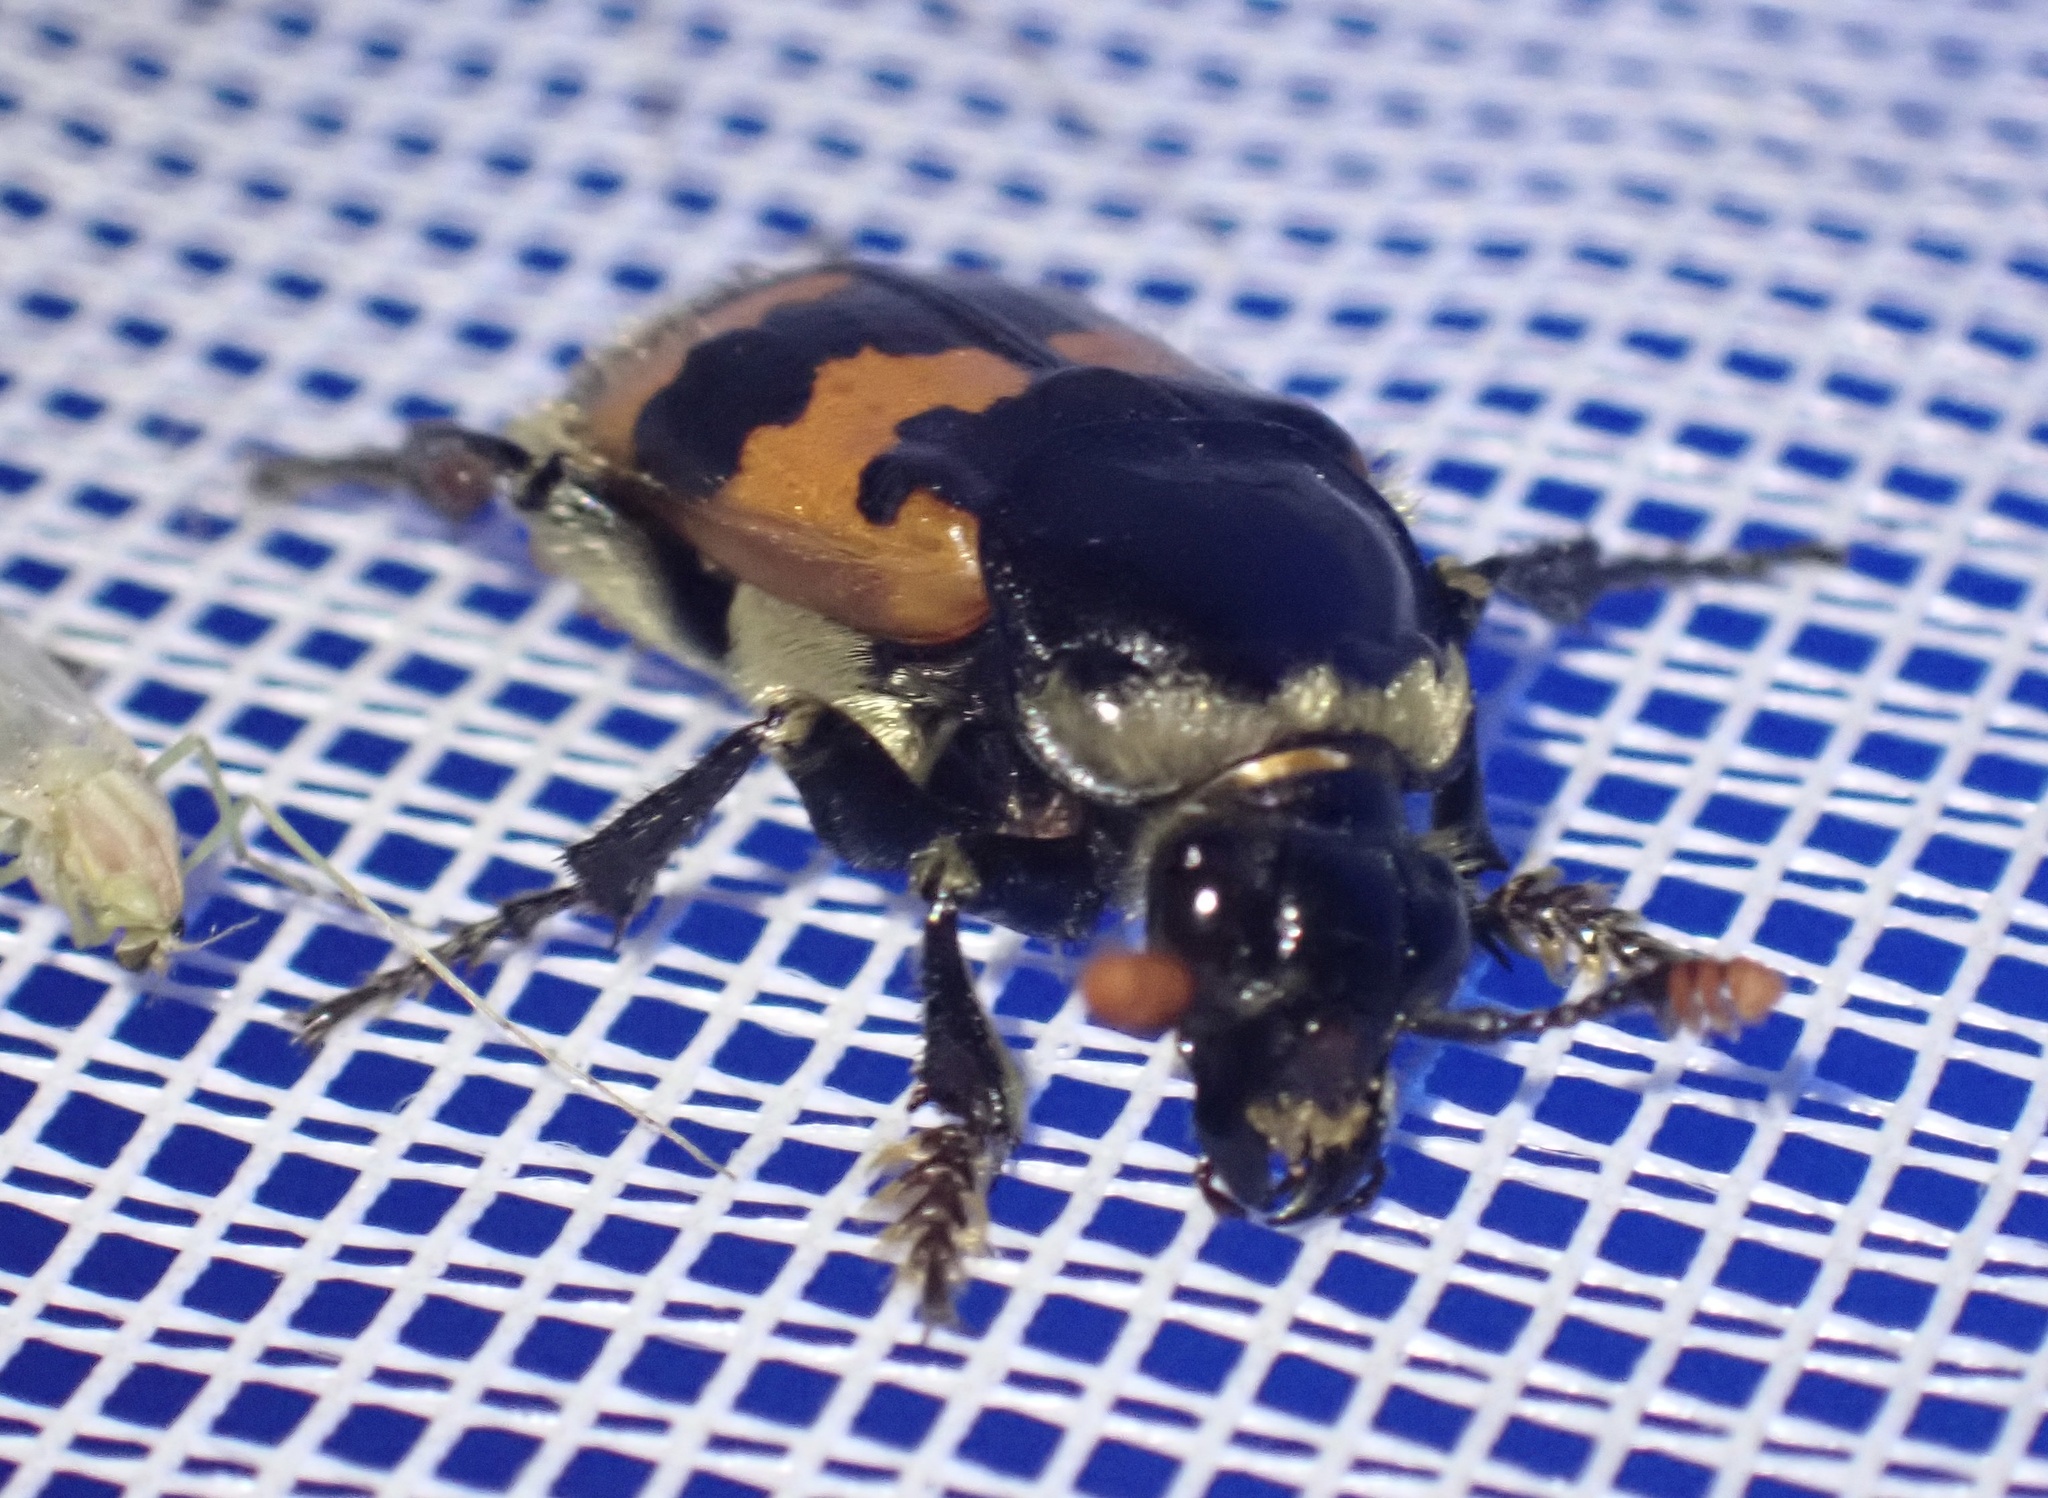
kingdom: Animalia
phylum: Arthropoda
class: Insecta
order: Coleoptera
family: Staphylinidae
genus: Nicrophorus
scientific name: Nicrophorus vespillo
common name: Common burying beetle
